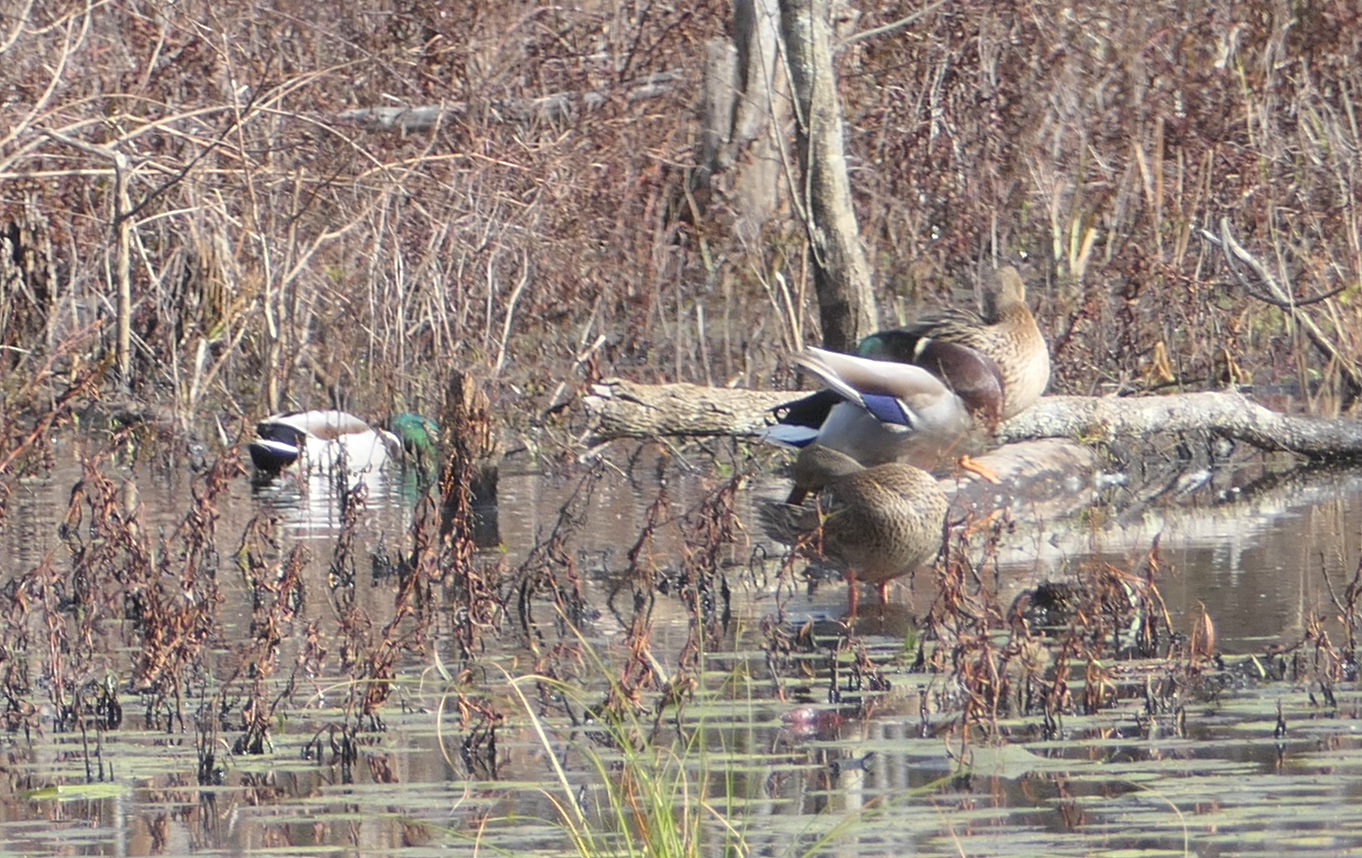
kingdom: Animalia
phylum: Chordata
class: Aves
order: Anseriformes
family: Anatidae
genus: Anas
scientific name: Anas platyrhynchos
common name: Mallard
